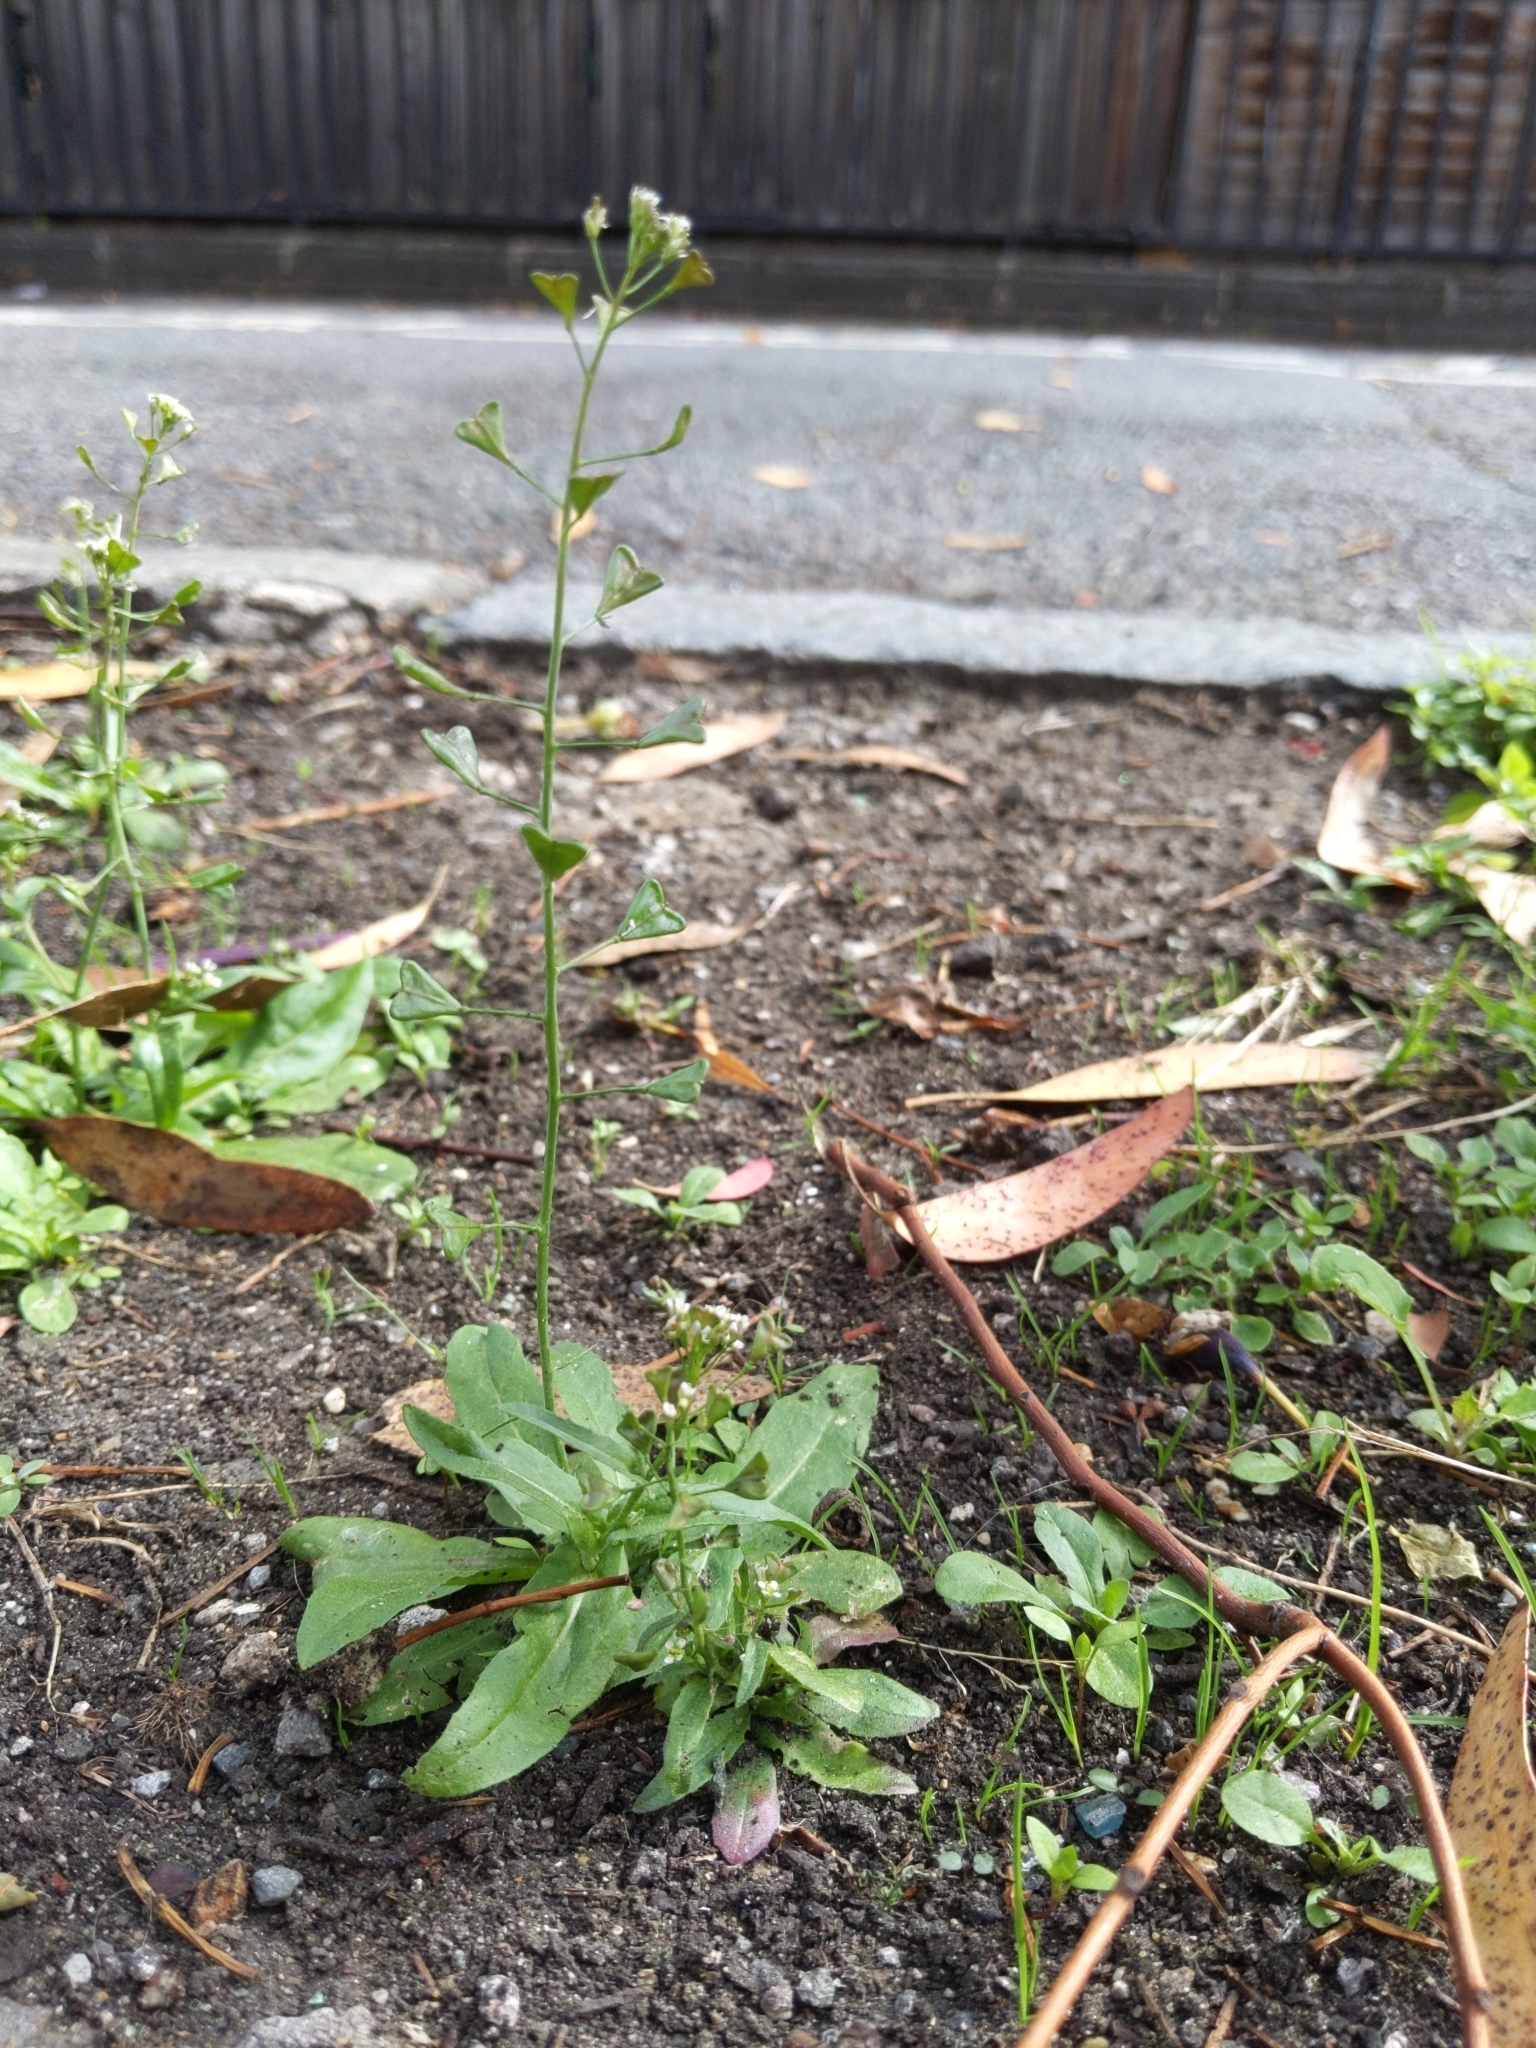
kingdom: Plantae
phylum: Tracheophyta
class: Magnoliopsida
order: Brassicales
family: Brassicaceae
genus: Capsella
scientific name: Capsella bursa-pastoris
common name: Shepherd's purse
